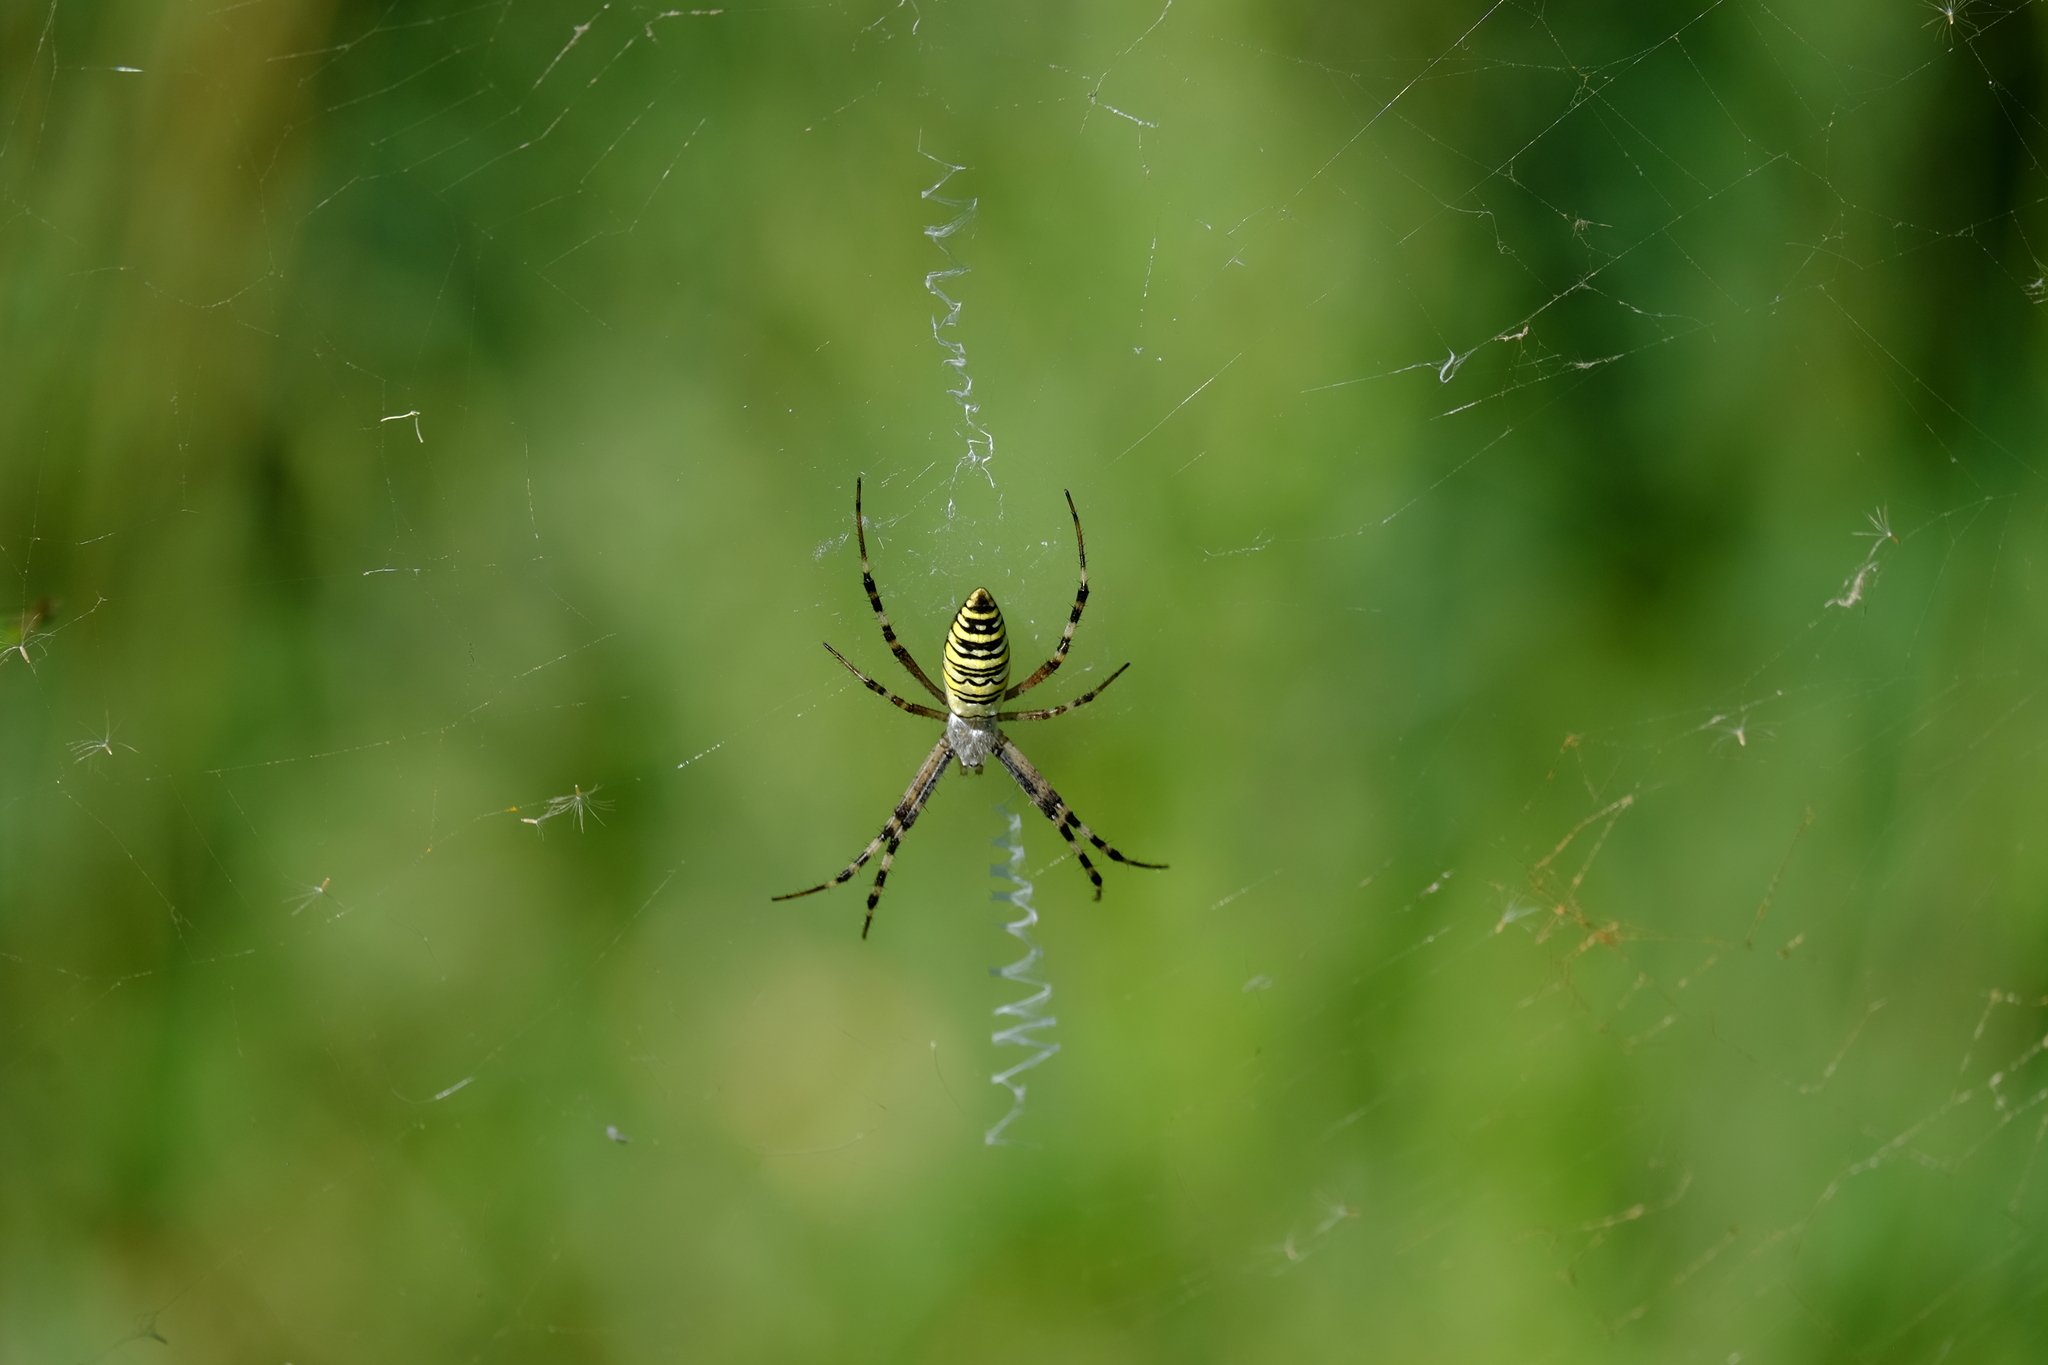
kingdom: Animalia
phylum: Arthropoda
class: Arachnida
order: Araneae
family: Araneidae
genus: Argiope
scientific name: Argiope bruennichi
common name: Wasp spider
